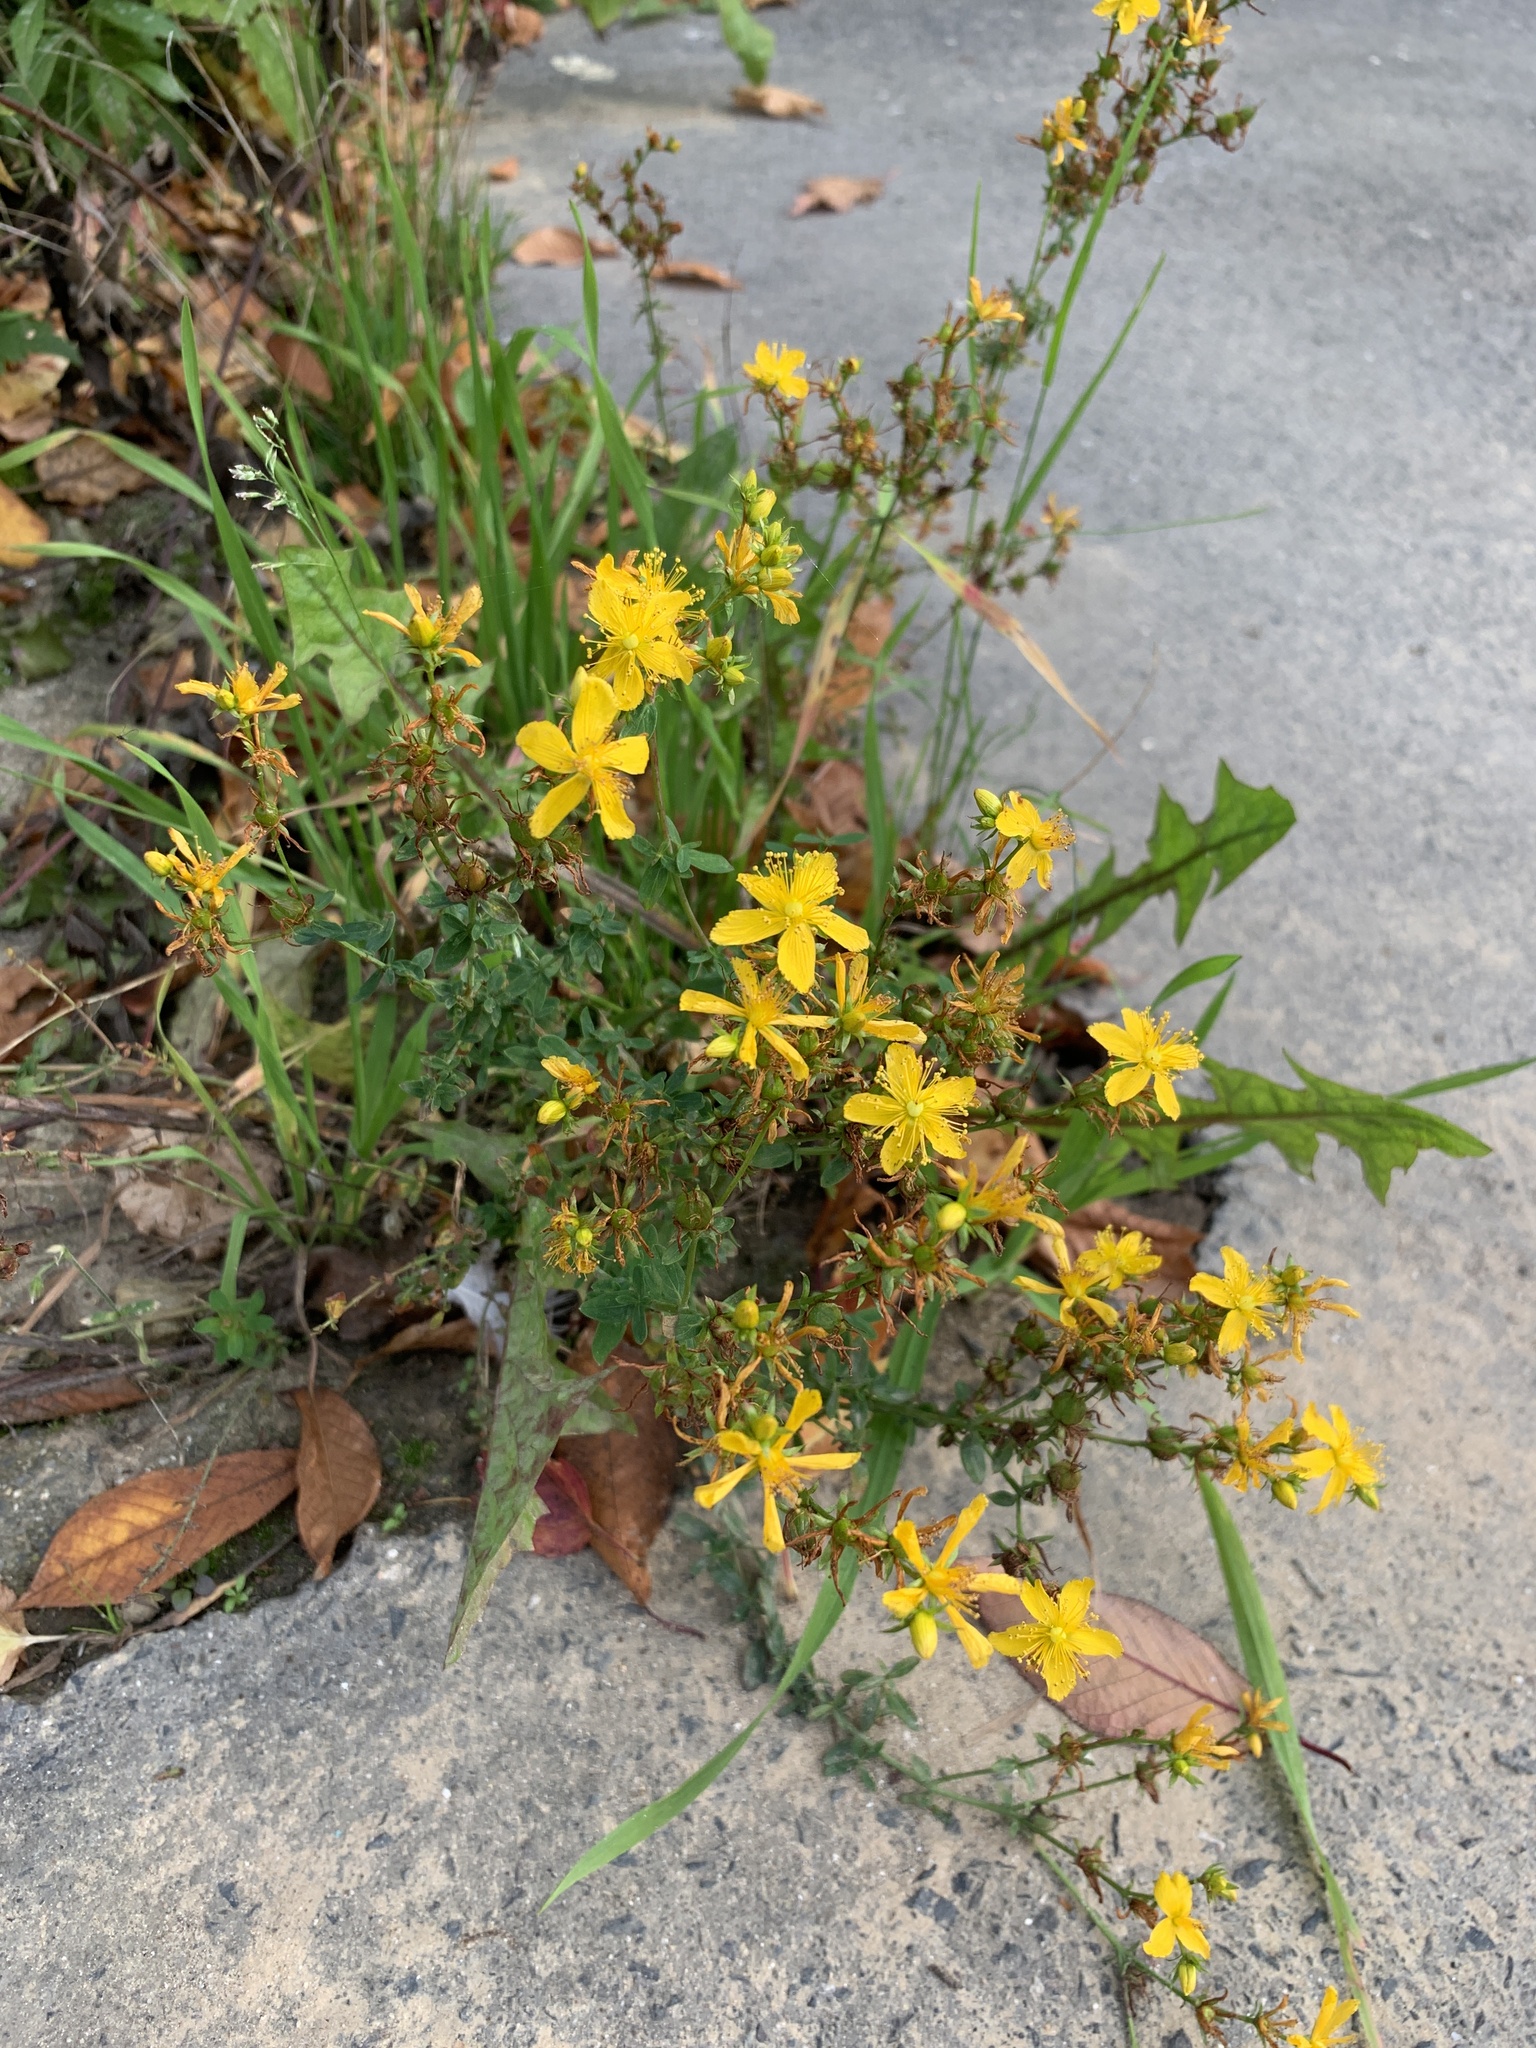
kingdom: Plantae
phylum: Tracheophyta
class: Magnoliopsida
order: Malpighiales
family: Hypericaceae
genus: Hypericum
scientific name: Hypericum perforatum
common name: Common st. johnswort
